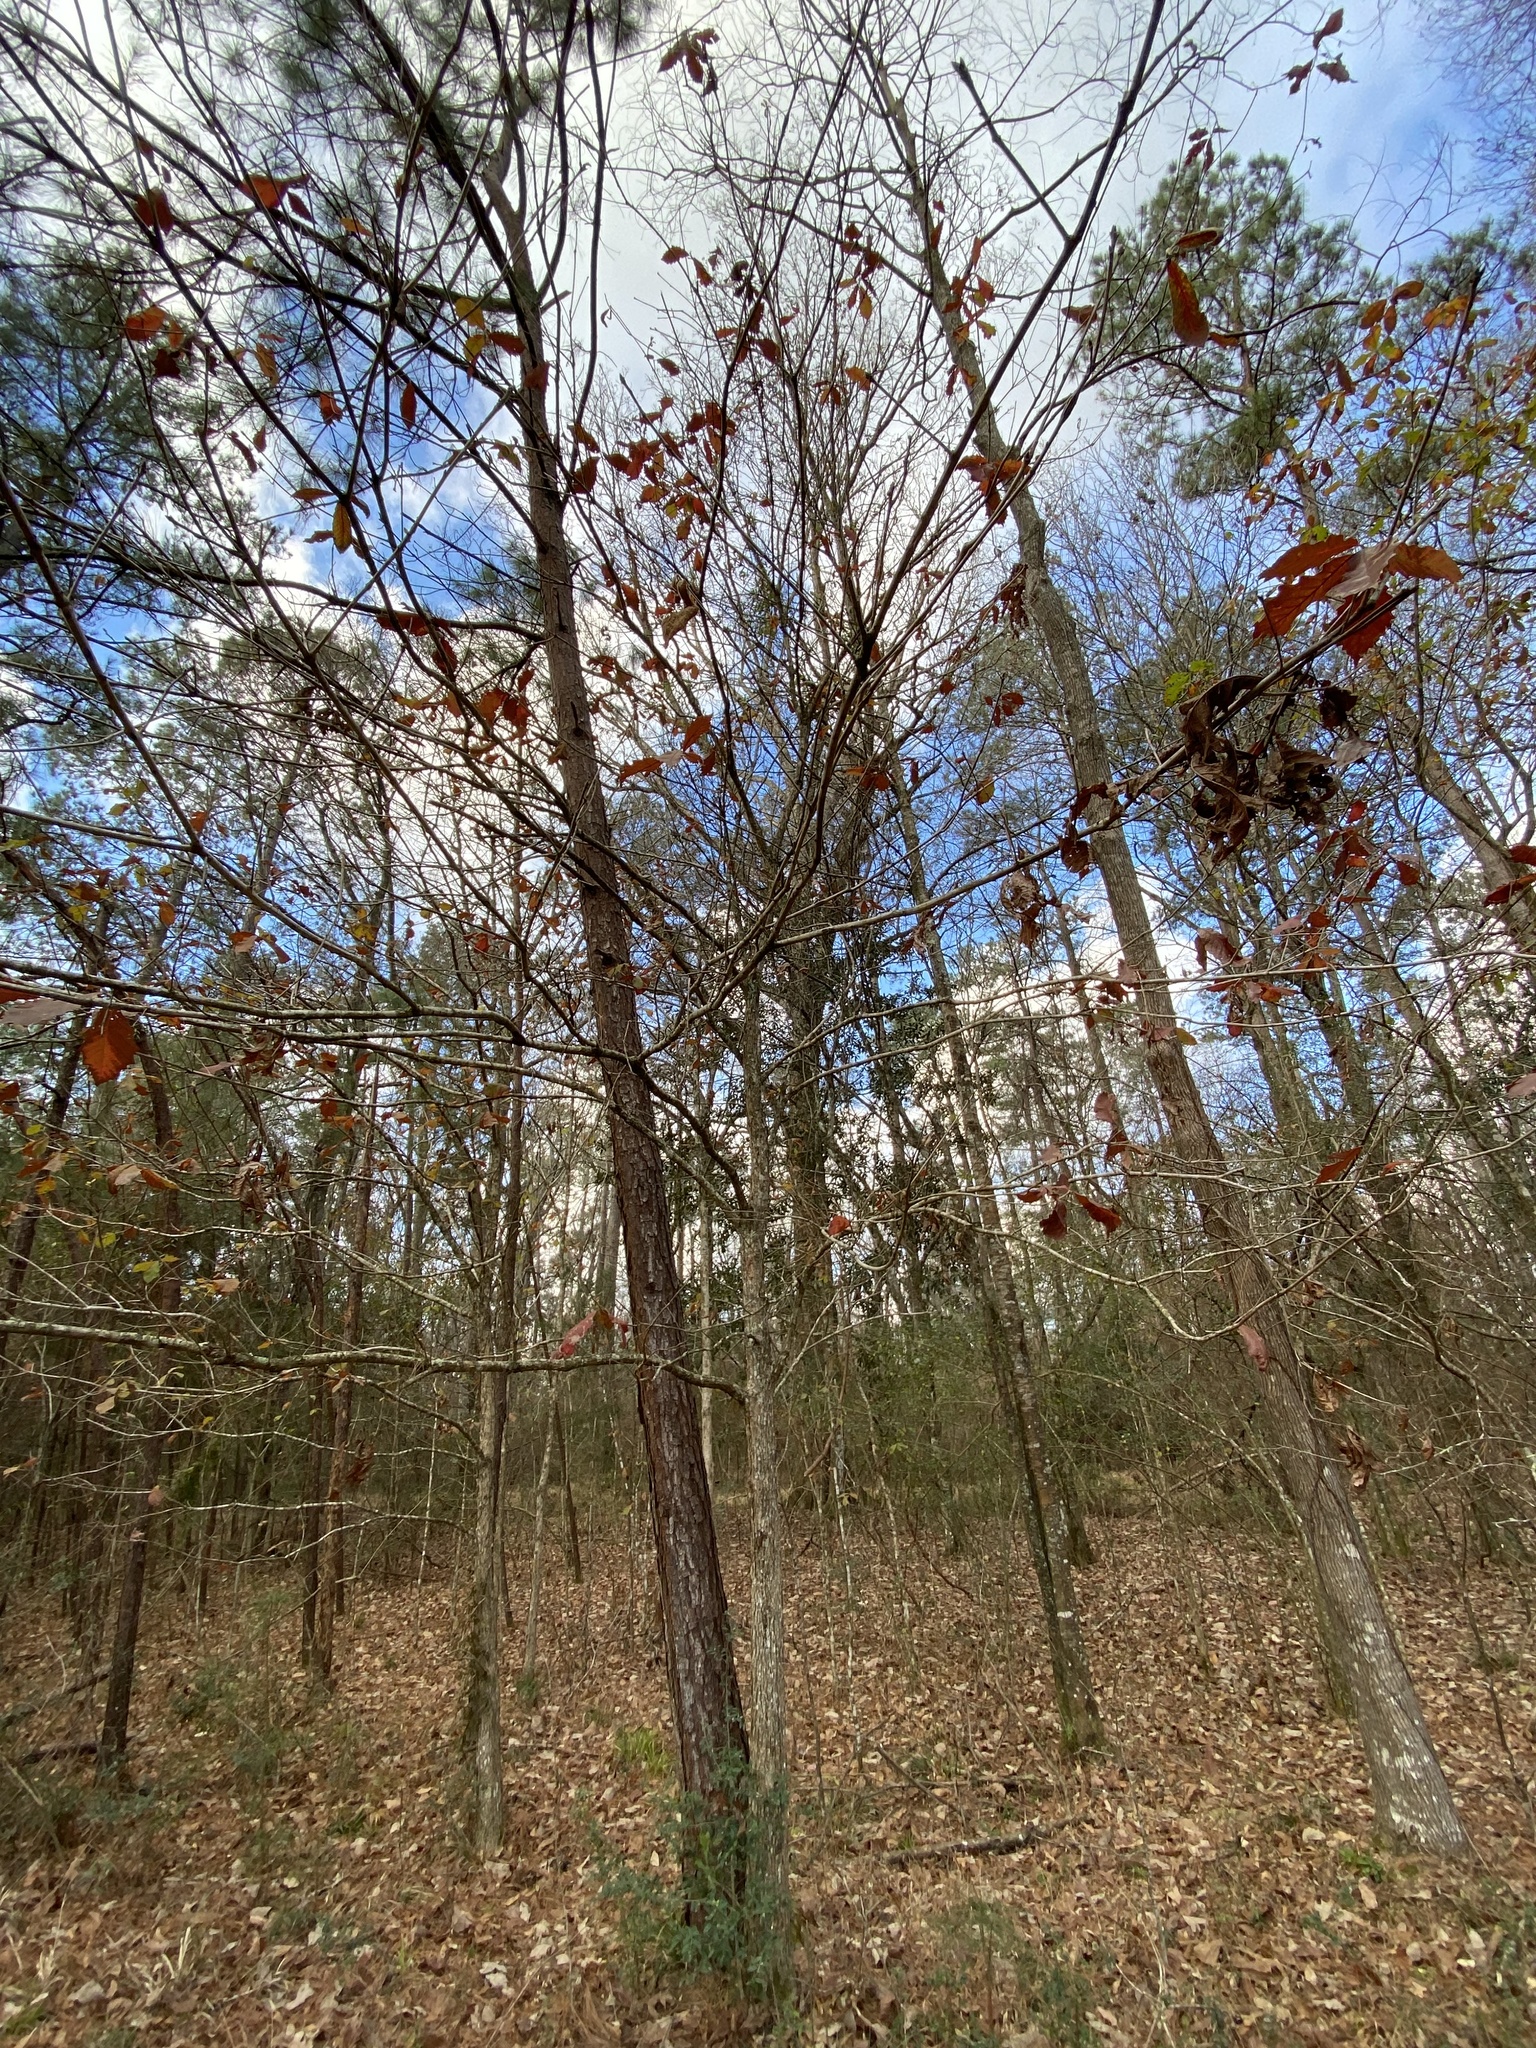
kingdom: Plantae
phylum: Tracheophyta
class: Magnoliopsida
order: Fagales
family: Fagaceae
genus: Quercus
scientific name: Quercus michauxii
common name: Swamp chestnut oak
